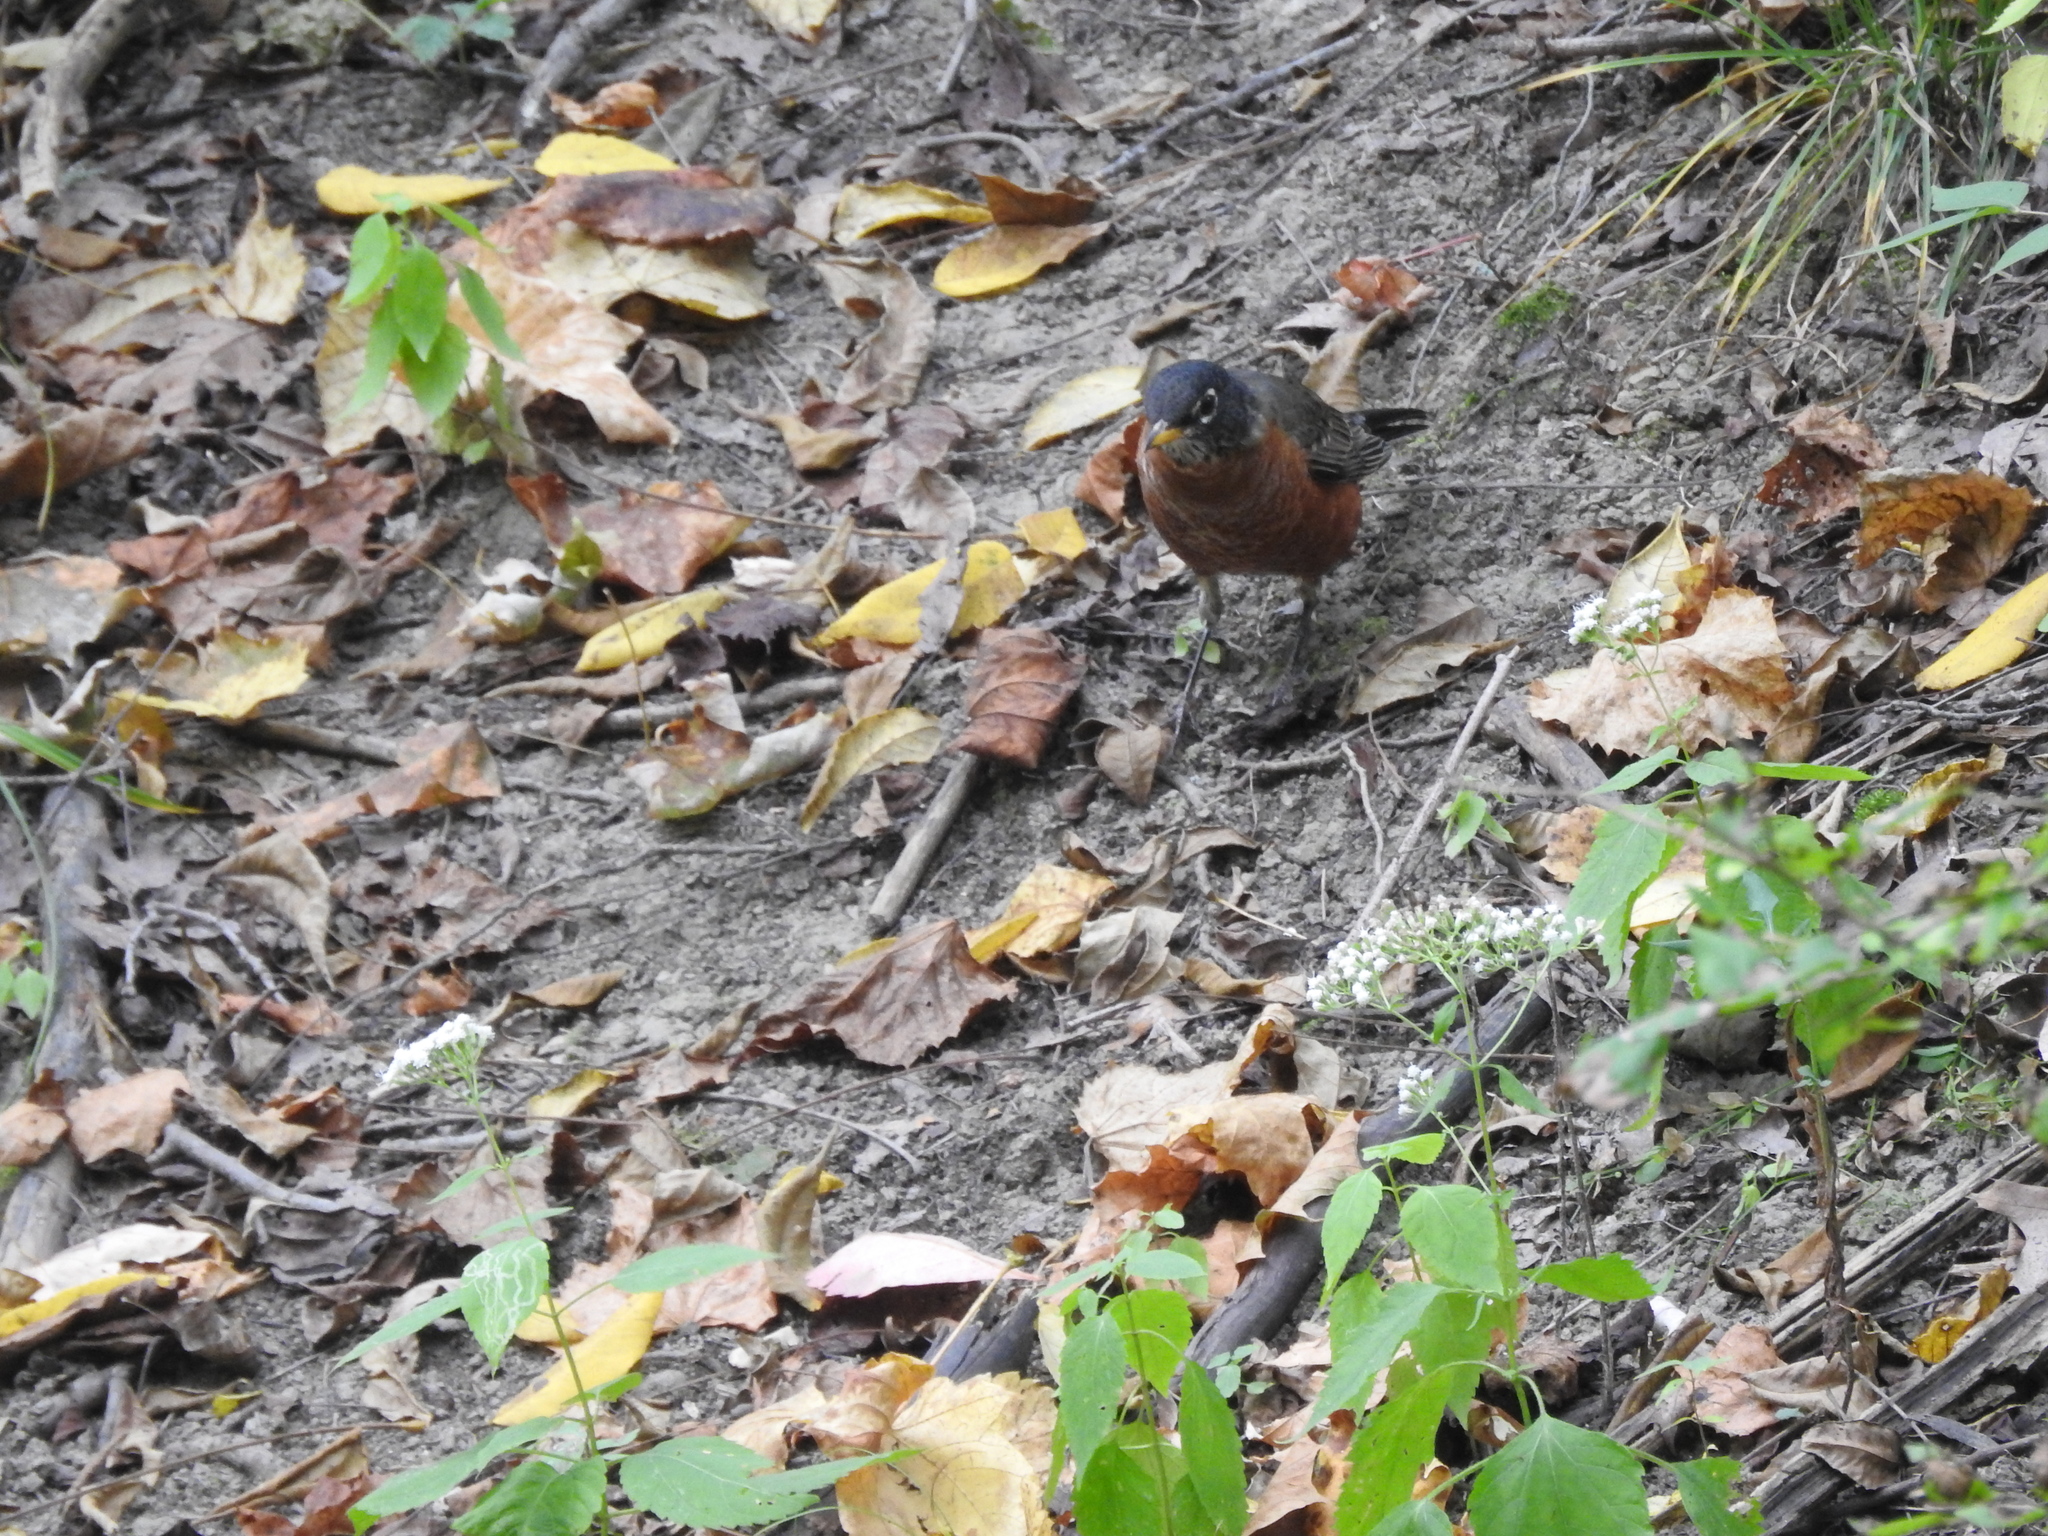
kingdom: Animalia
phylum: Chordata
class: Aves
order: Passeriformes
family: Turdidae
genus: Turdus
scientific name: Turdus migratorius
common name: American robin
